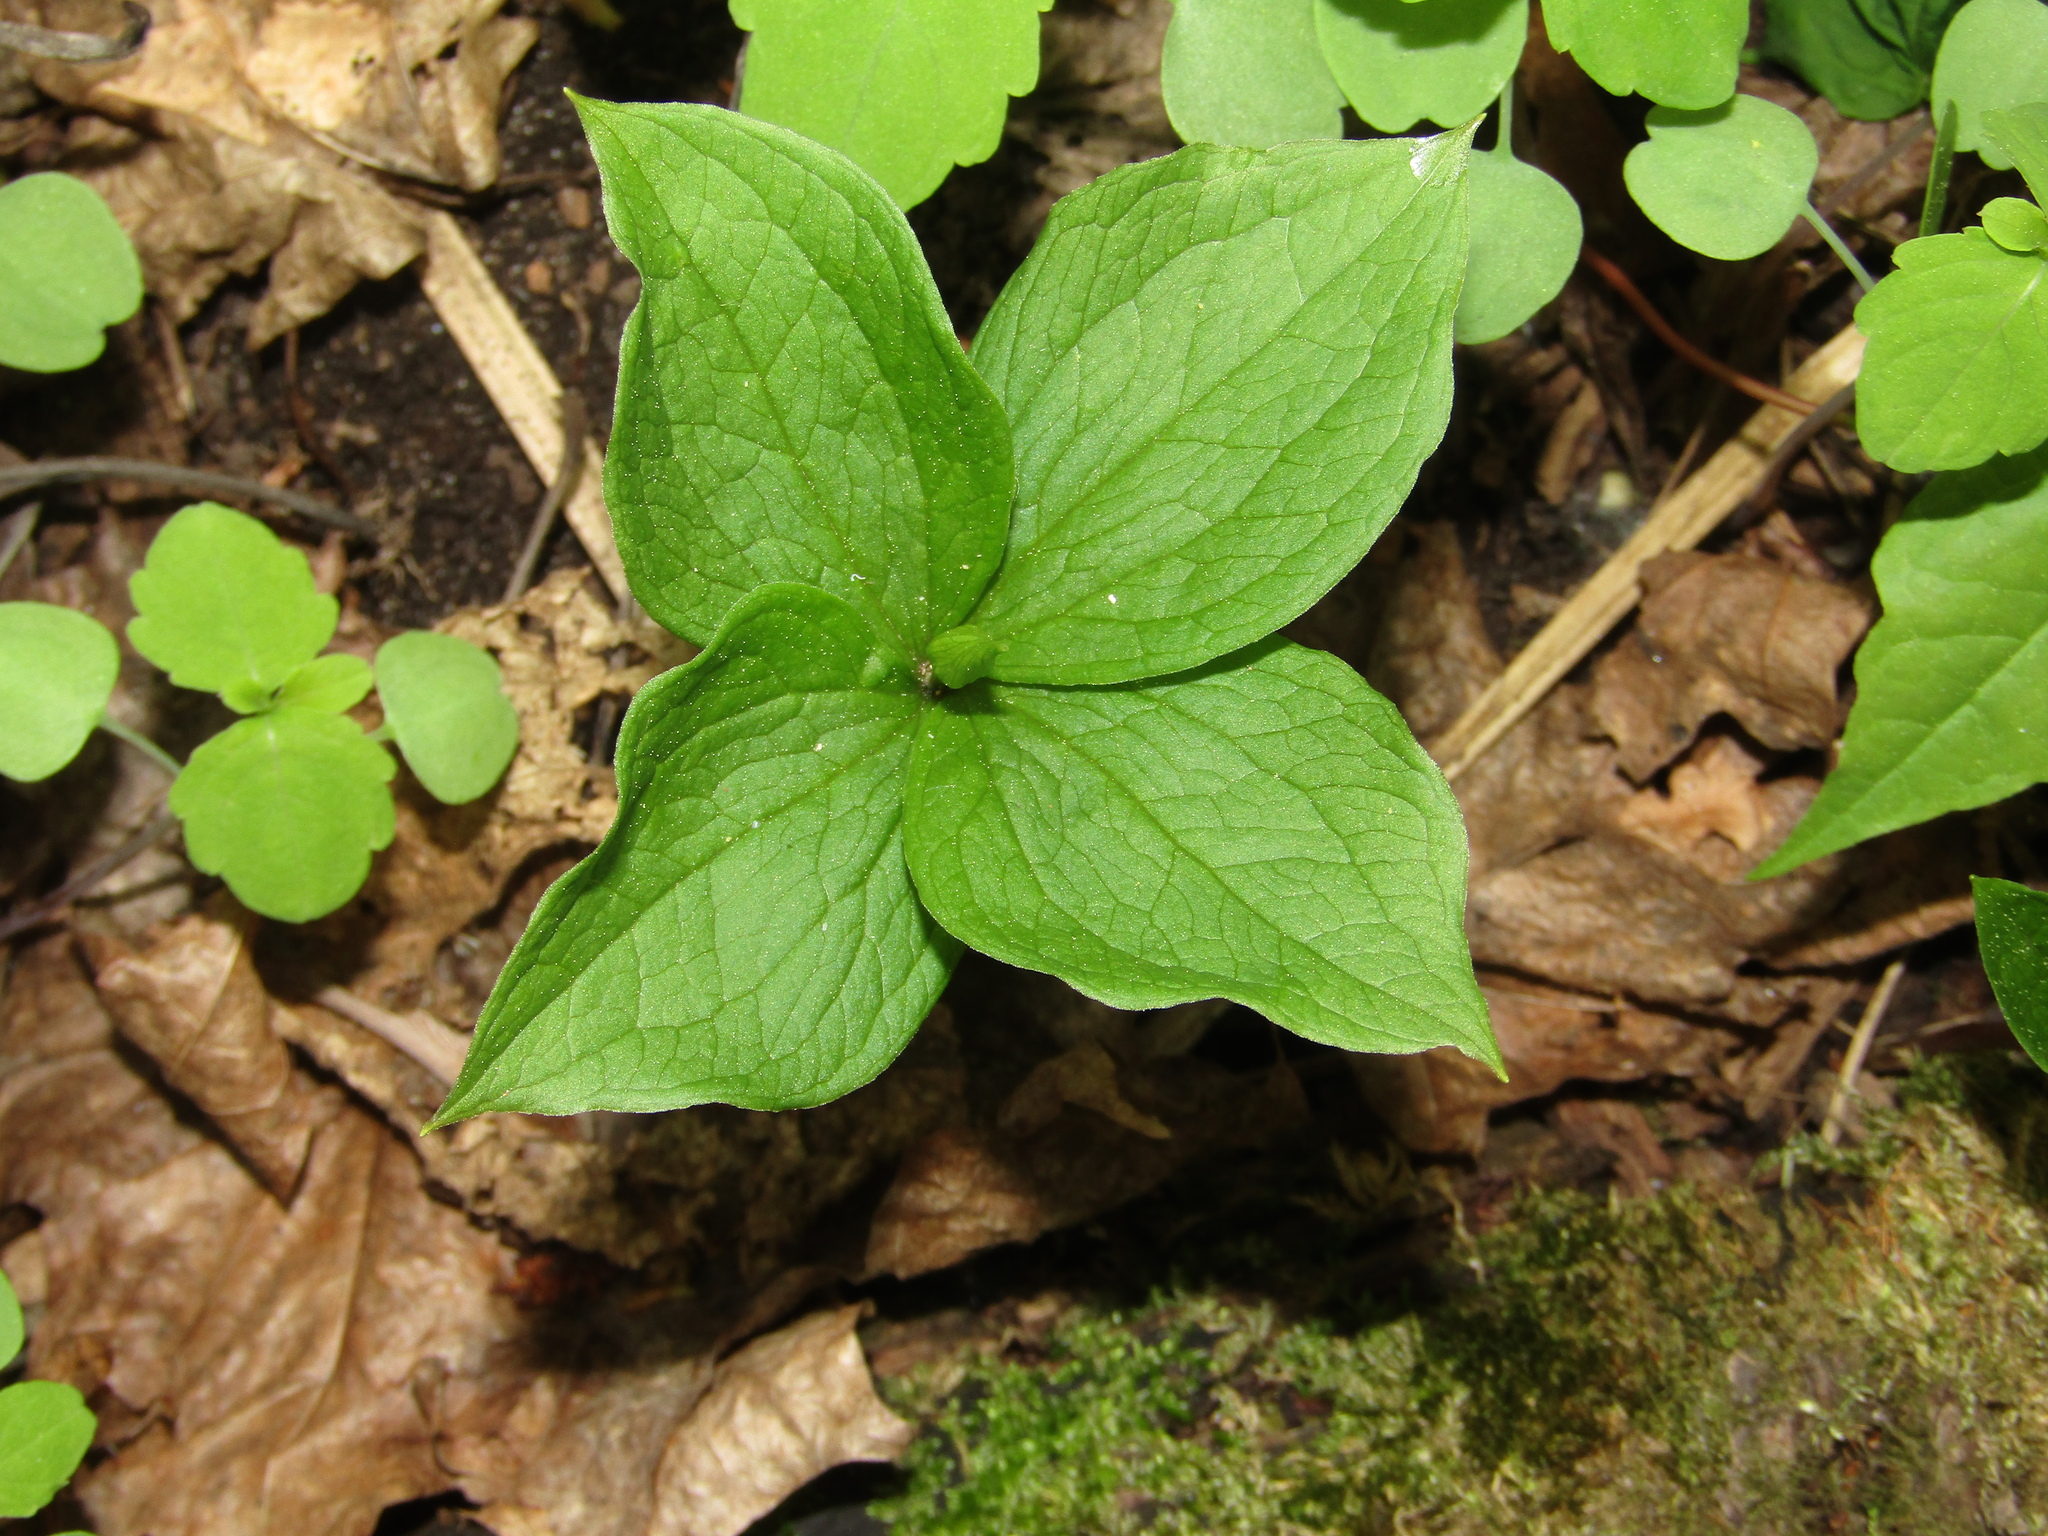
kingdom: Plantae
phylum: Tracheophyta
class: Liliopsida
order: Liliales
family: Melanthiaceae
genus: Paris
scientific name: Paris quadrifolia
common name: Herb-paris
